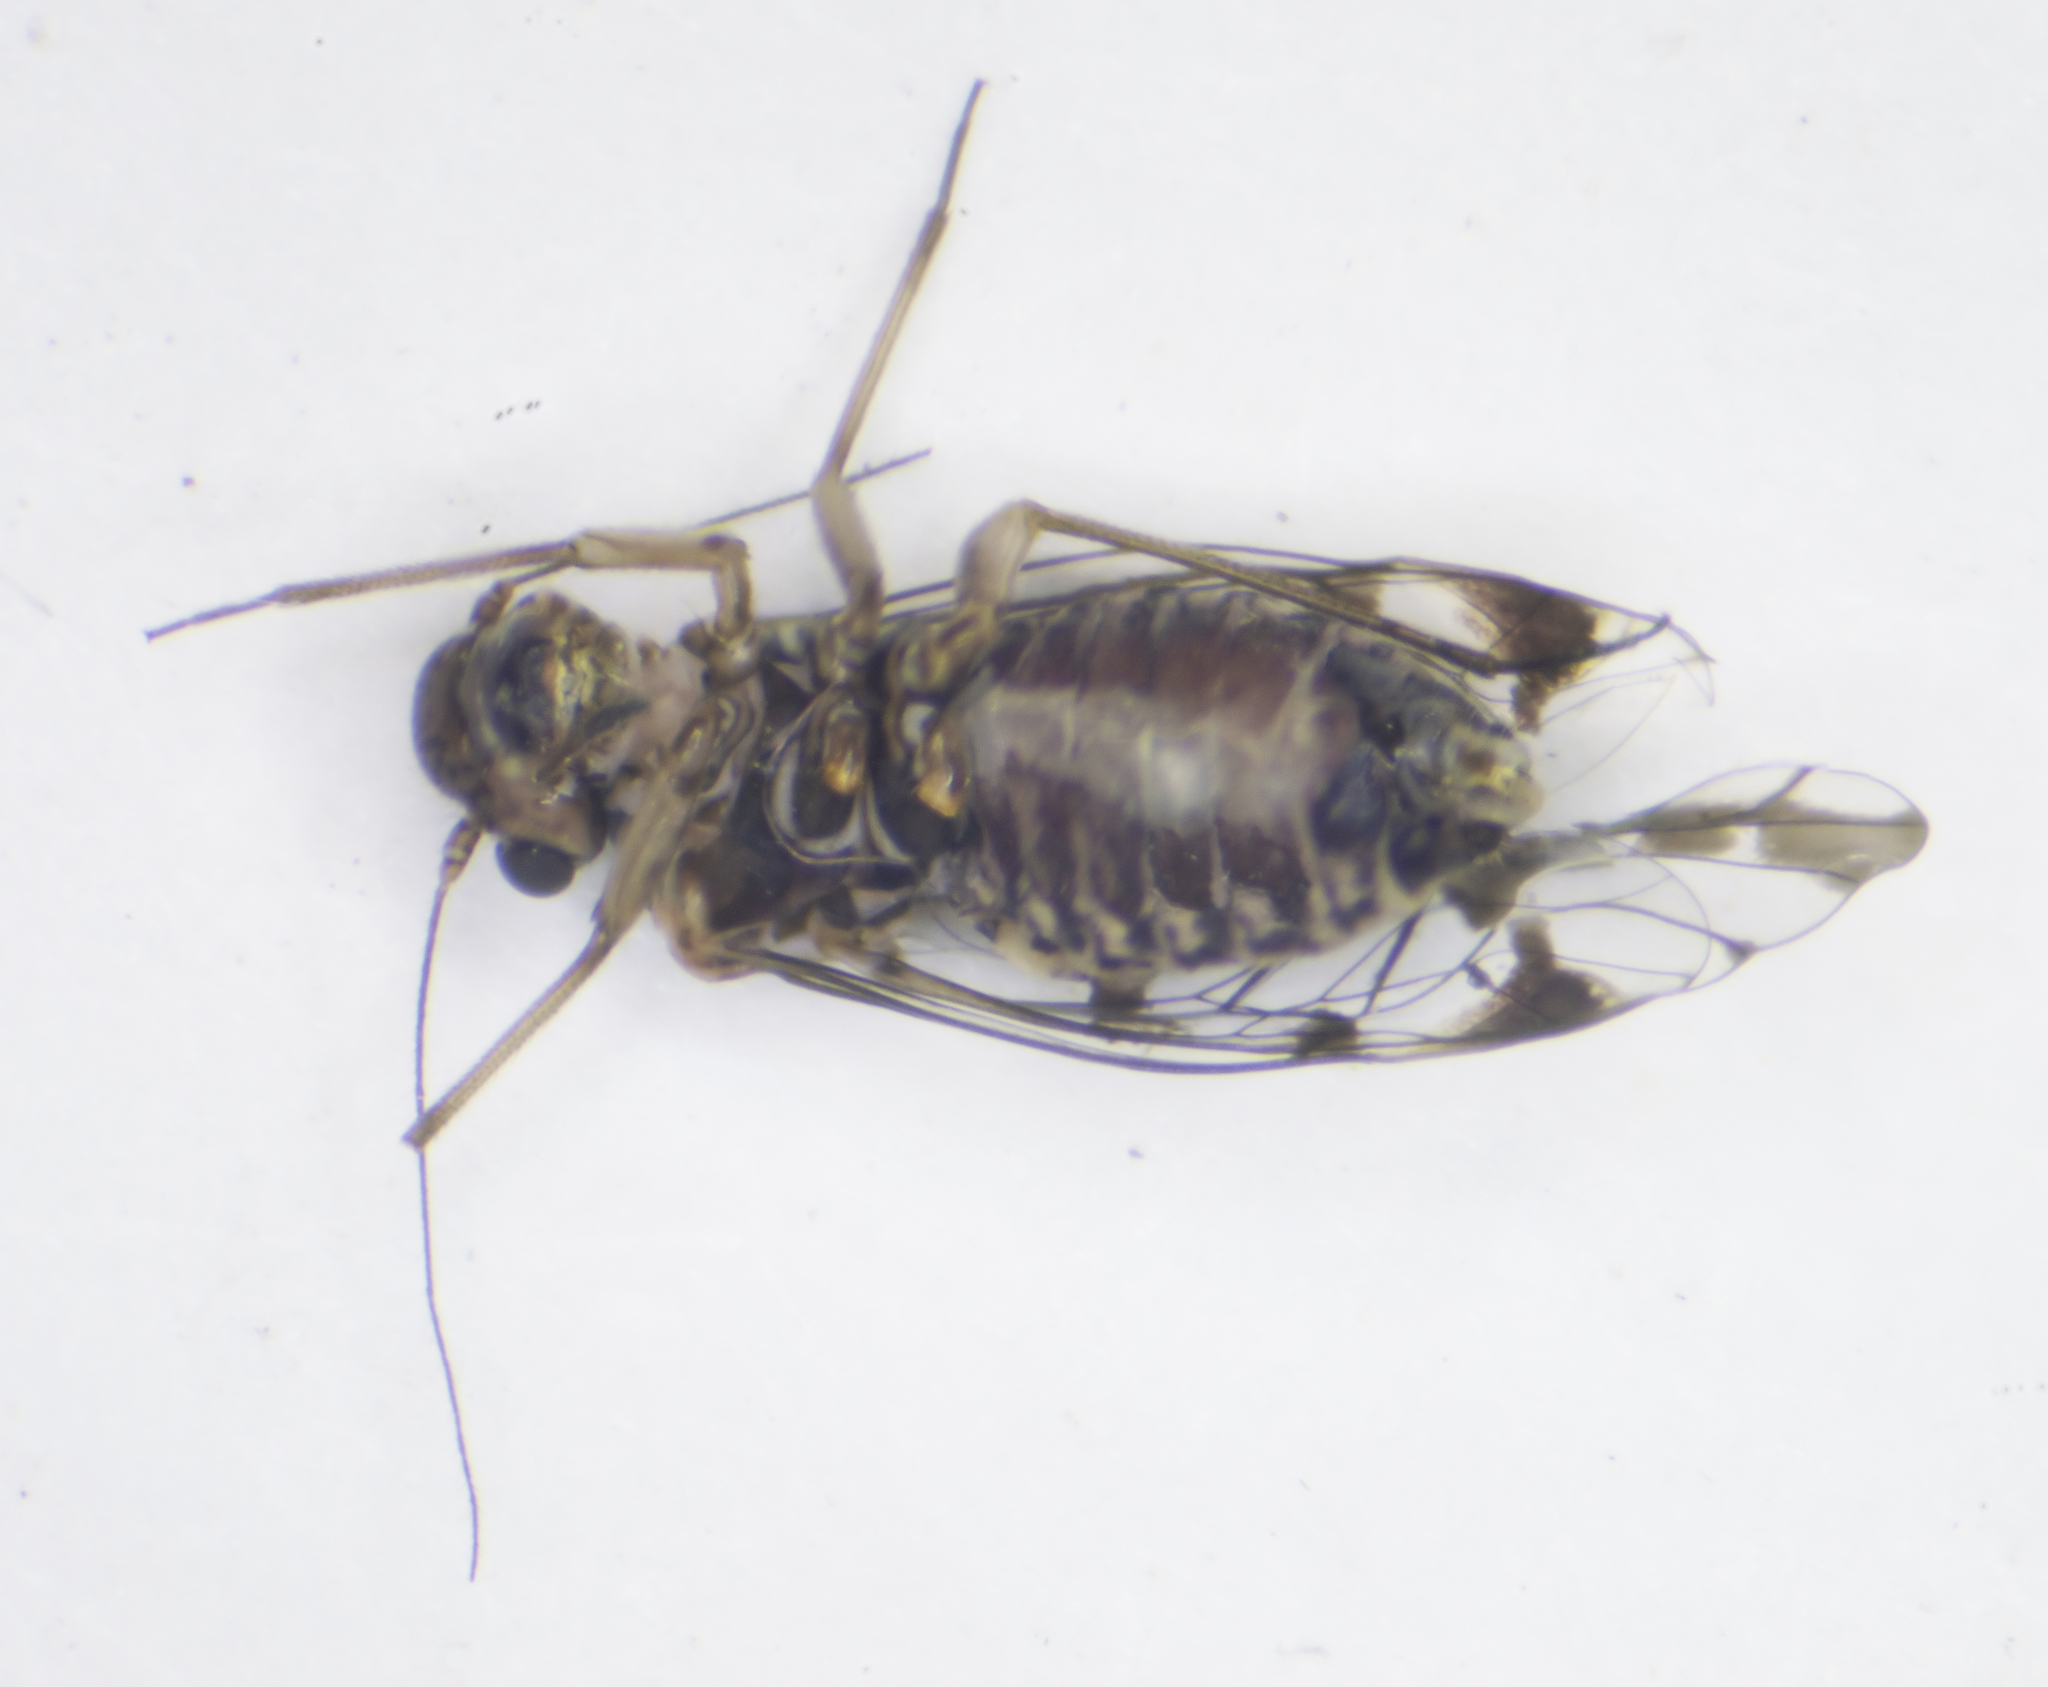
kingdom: Animalia
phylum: Arthropoda
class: Insecta
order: Psocodea
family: Psocidae
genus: Neopsocus
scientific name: Neopsocus rhenanus
